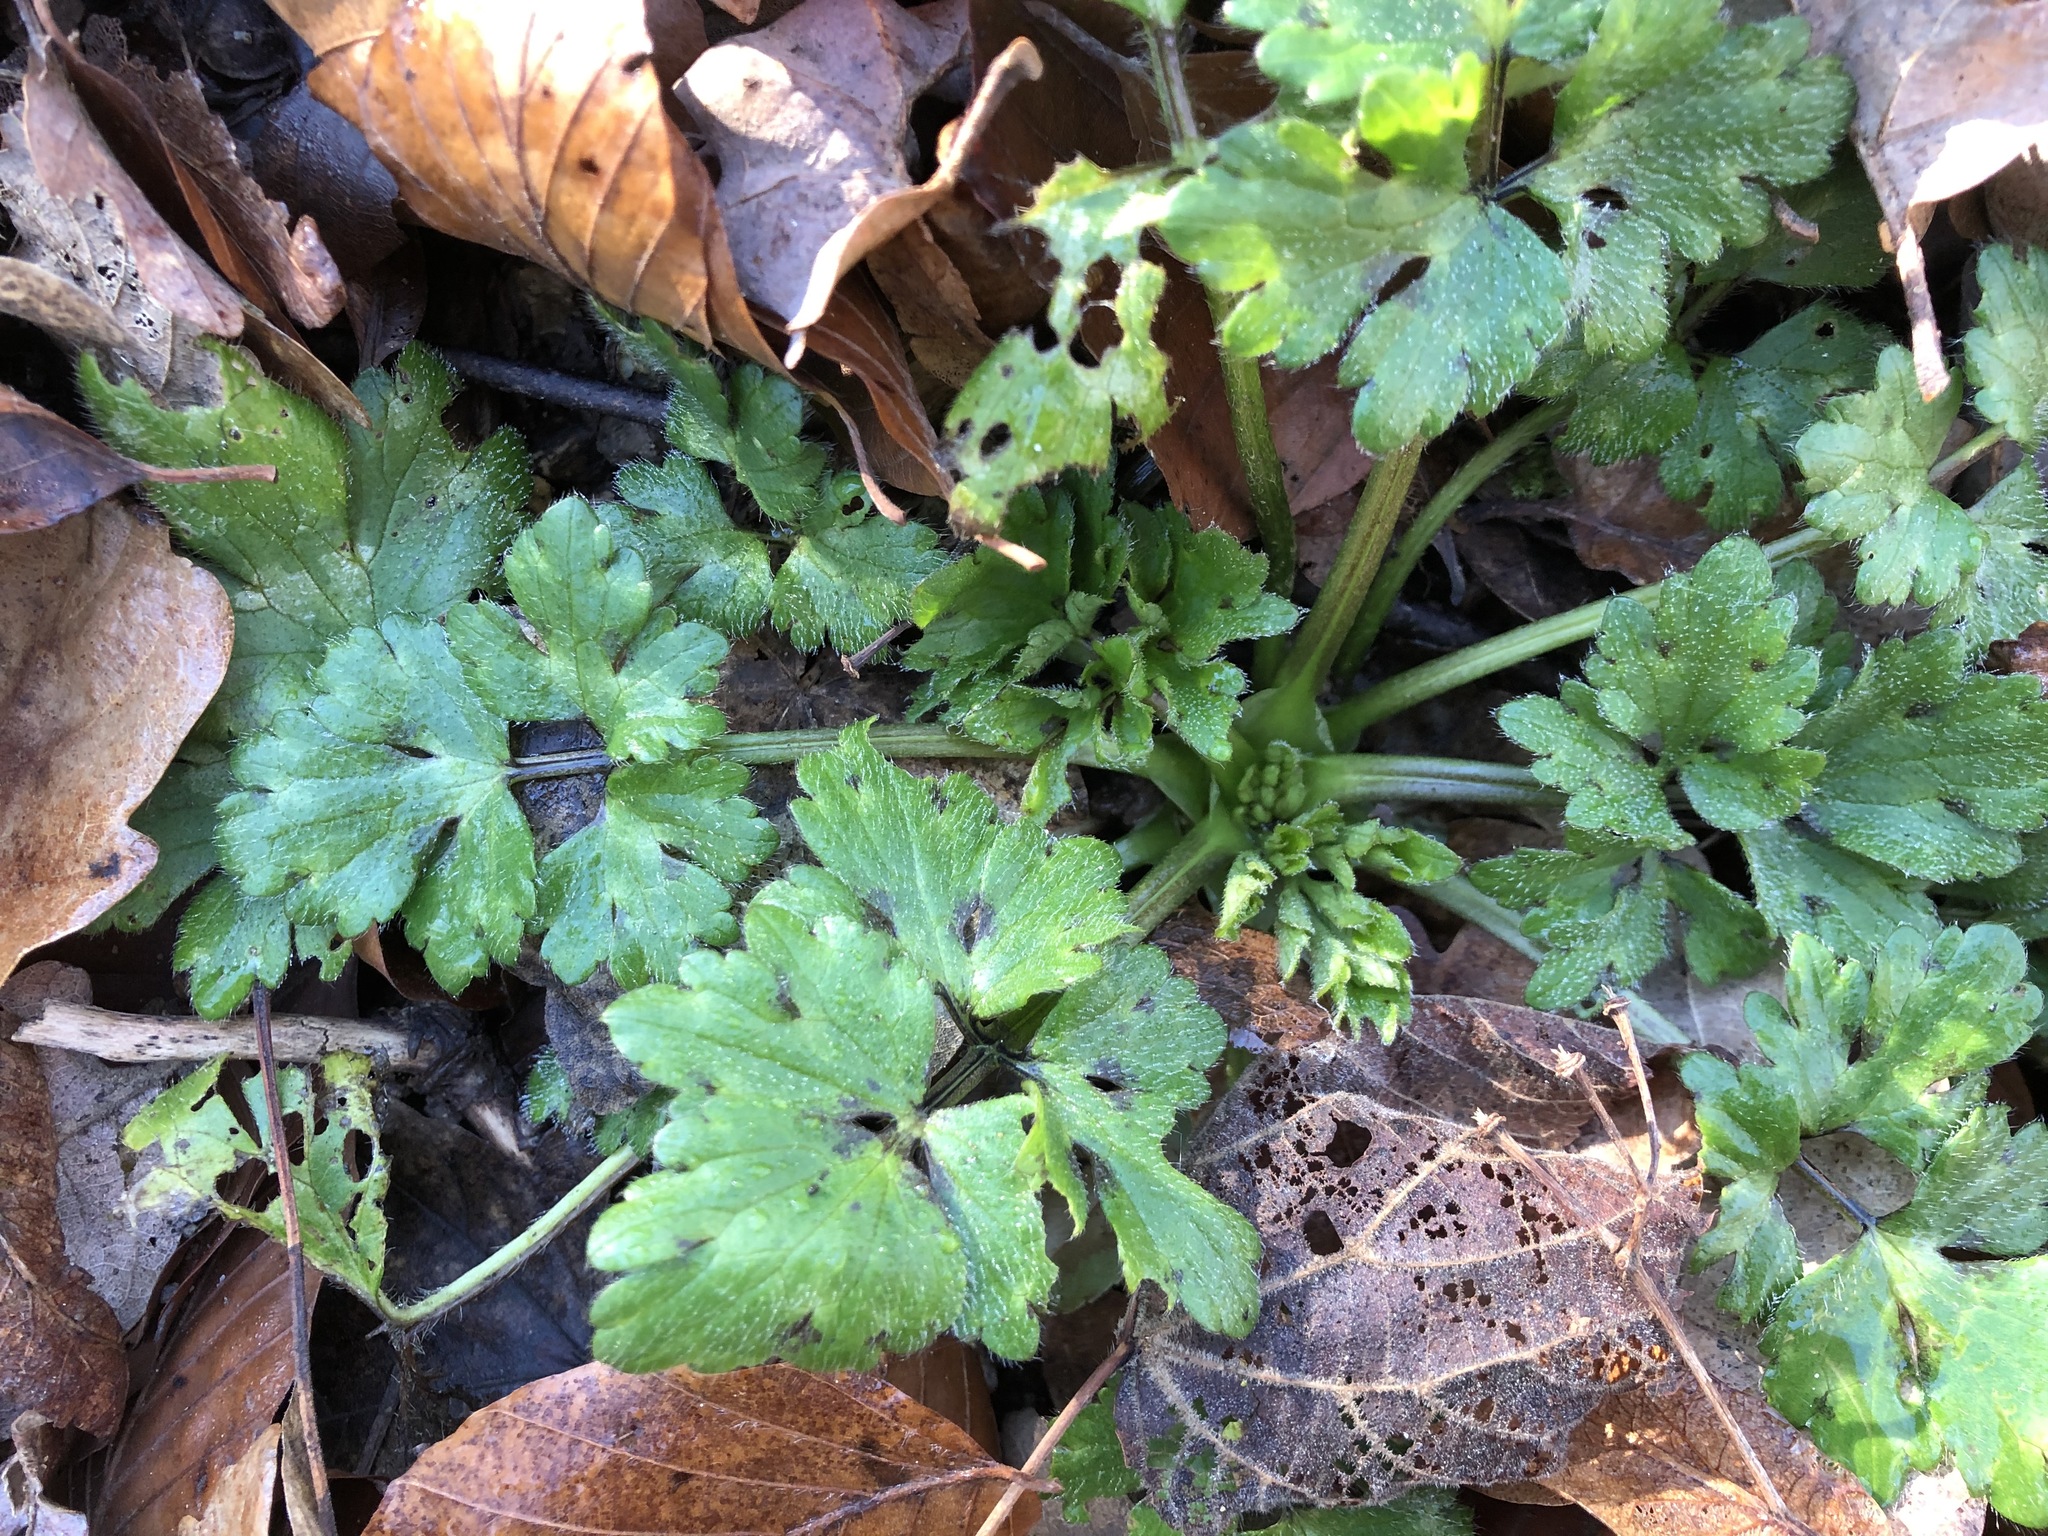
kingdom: Plantae
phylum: Tracheophyta
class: Magnoliopsida
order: Ranunculales
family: Ranunculaceae
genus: Ranunculus
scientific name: Ranunculus bulbosus
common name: Bulbous buttercup
